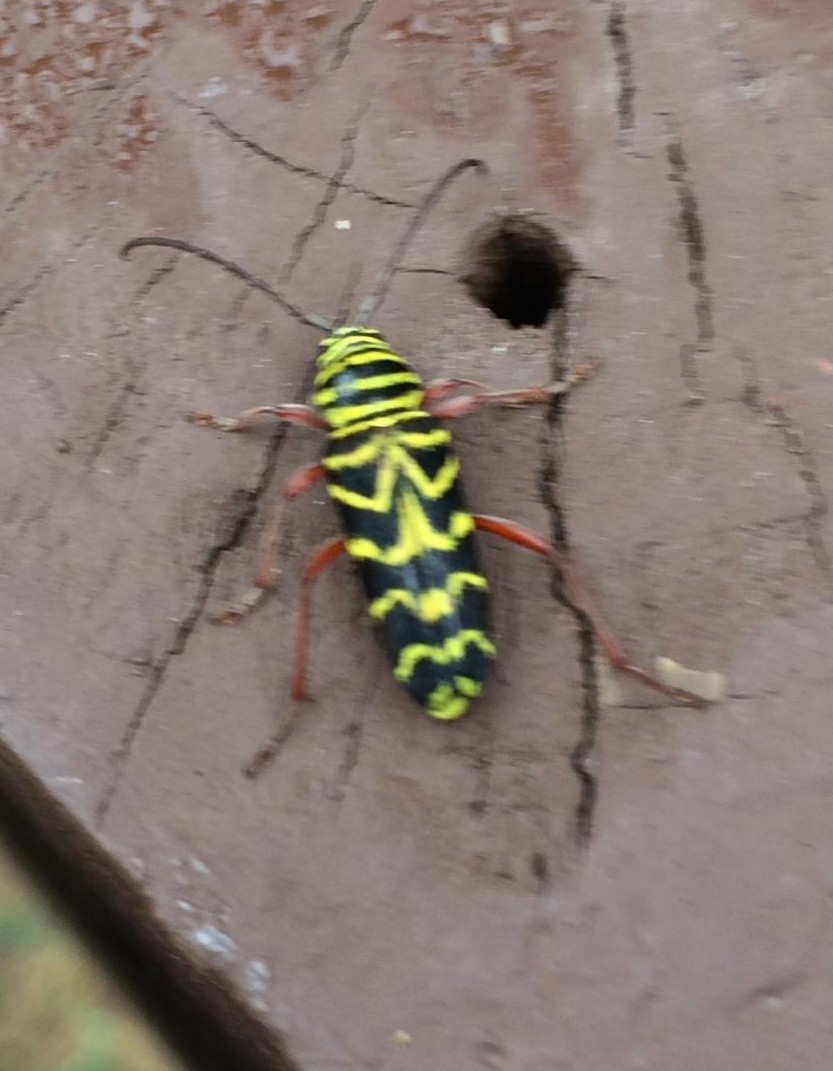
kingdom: Animalia
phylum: Arthropoda
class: Insecta
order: Coleoptera
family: Cerambycidae
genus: Megacyllene
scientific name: Megacyllene robiniae
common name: Locust borer
